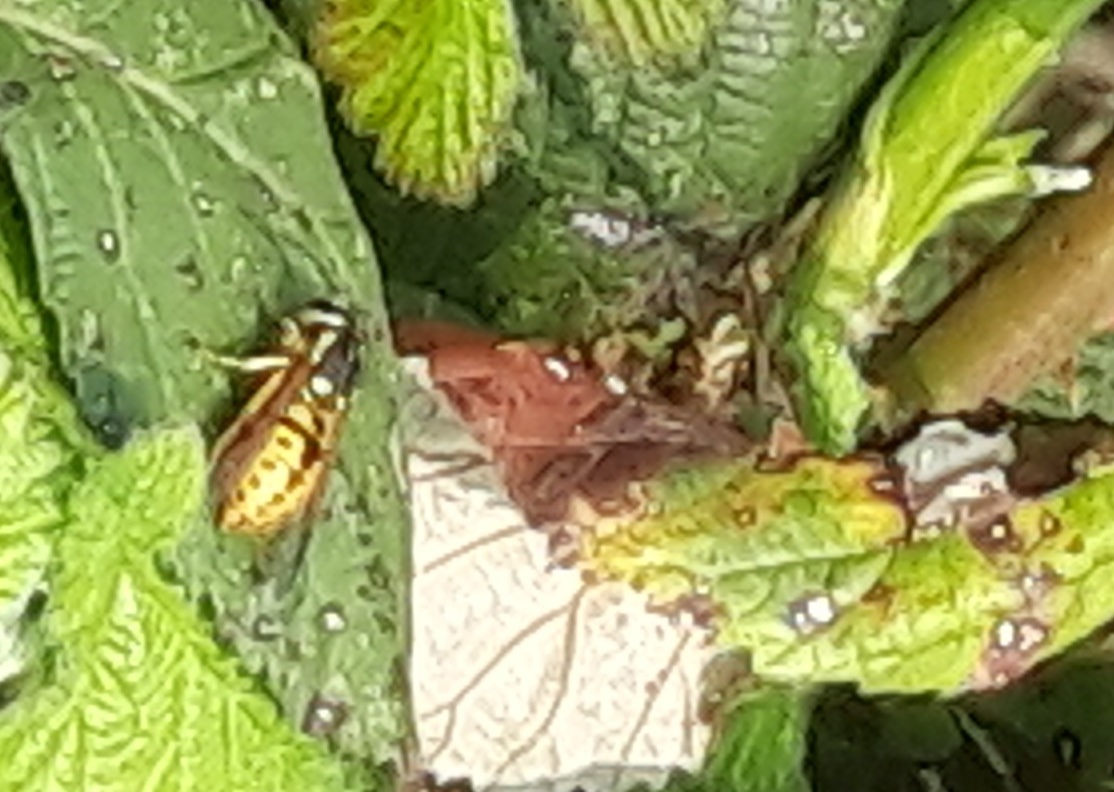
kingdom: Animalia
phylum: Arthropoda
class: Insecta
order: Hymenoptera
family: Vespidae
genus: Vespula
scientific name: Vespula germanica
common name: German wasp
